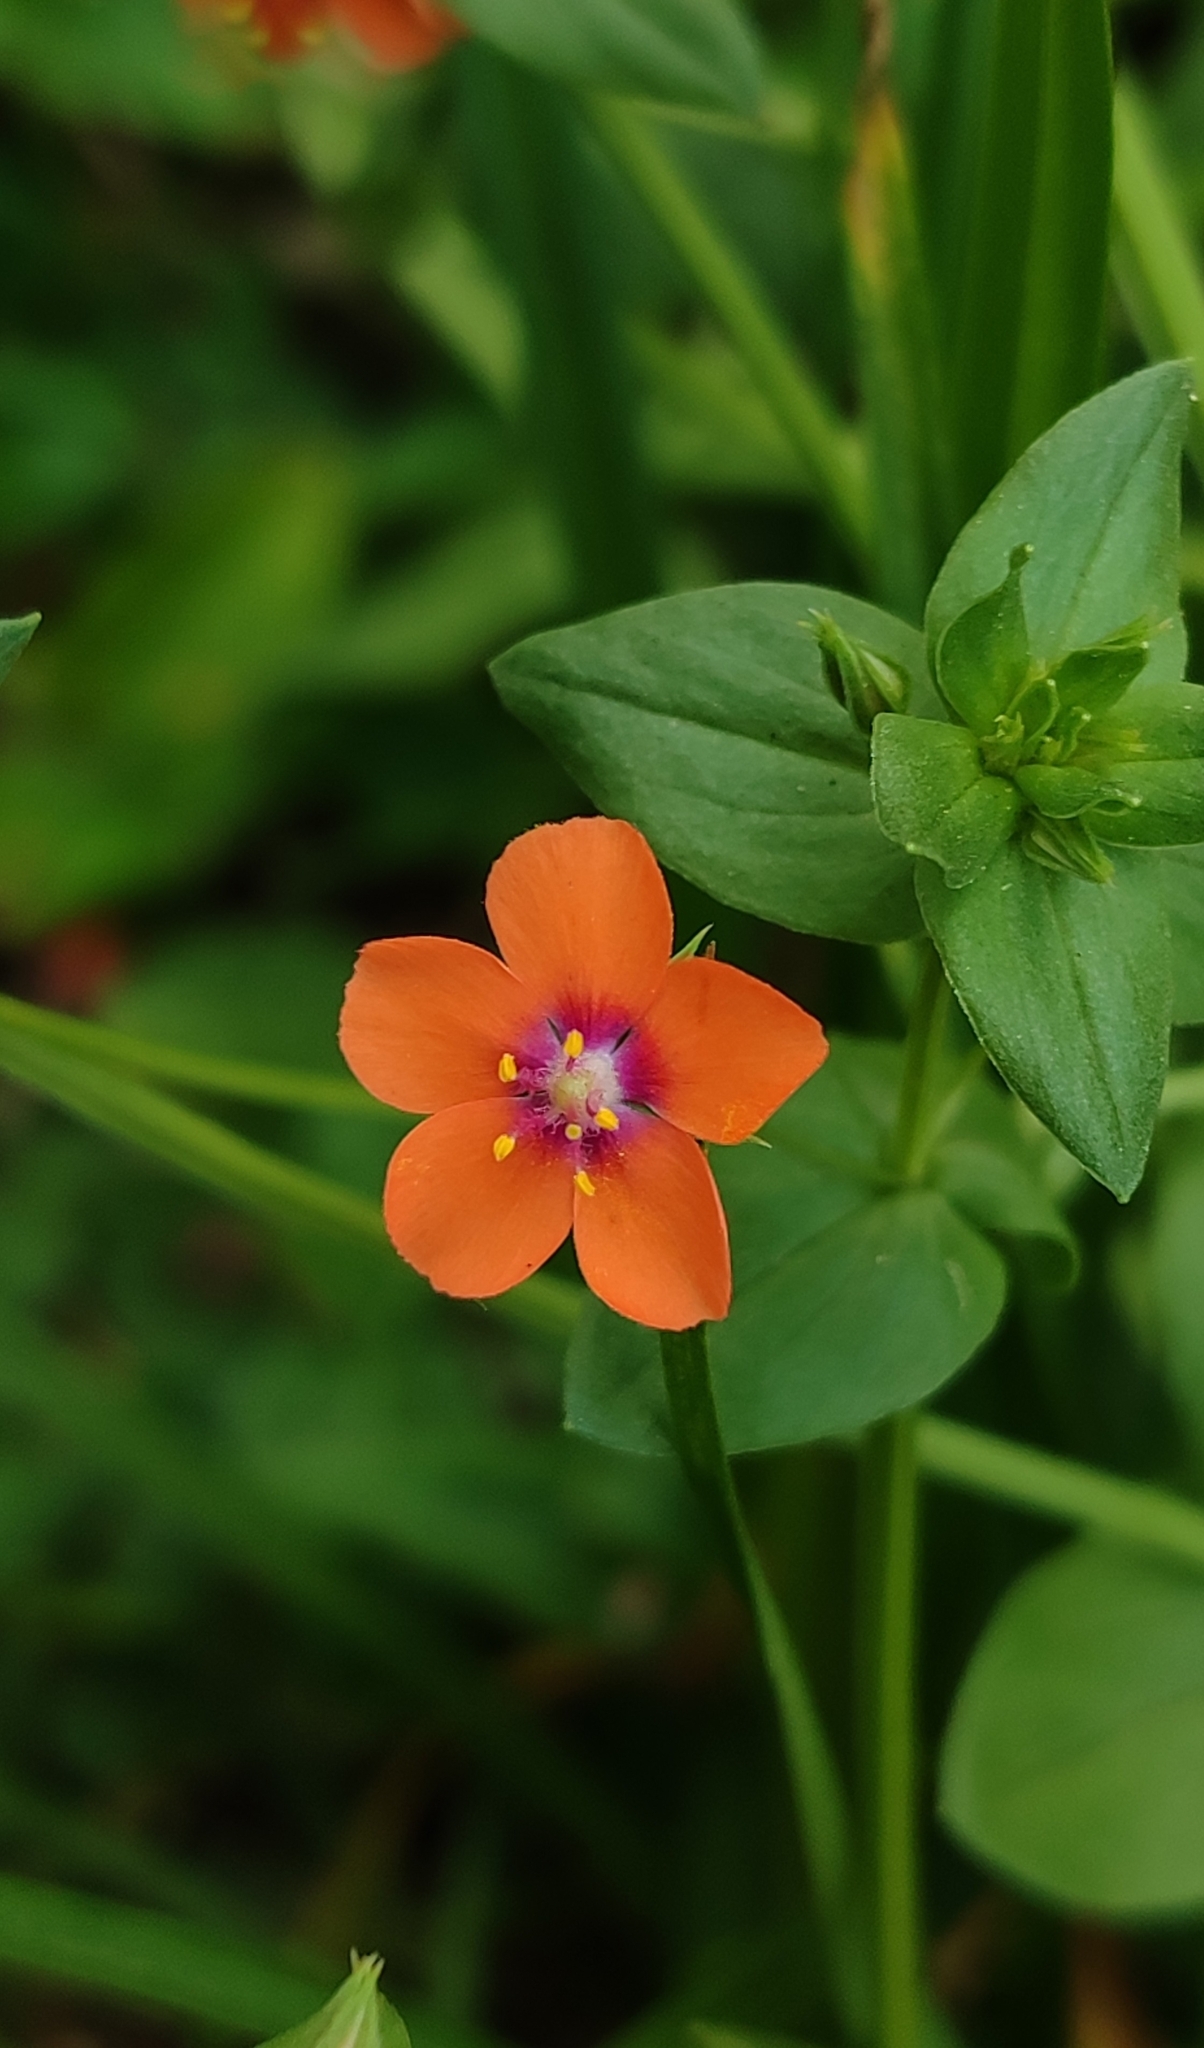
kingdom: Plantae
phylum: Tracheophyta
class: Magnoliopsida
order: Ericales
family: Primulaceae
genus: Lysimachia
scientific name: Lysimachia arvensis
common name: Scarlet pimpernel
